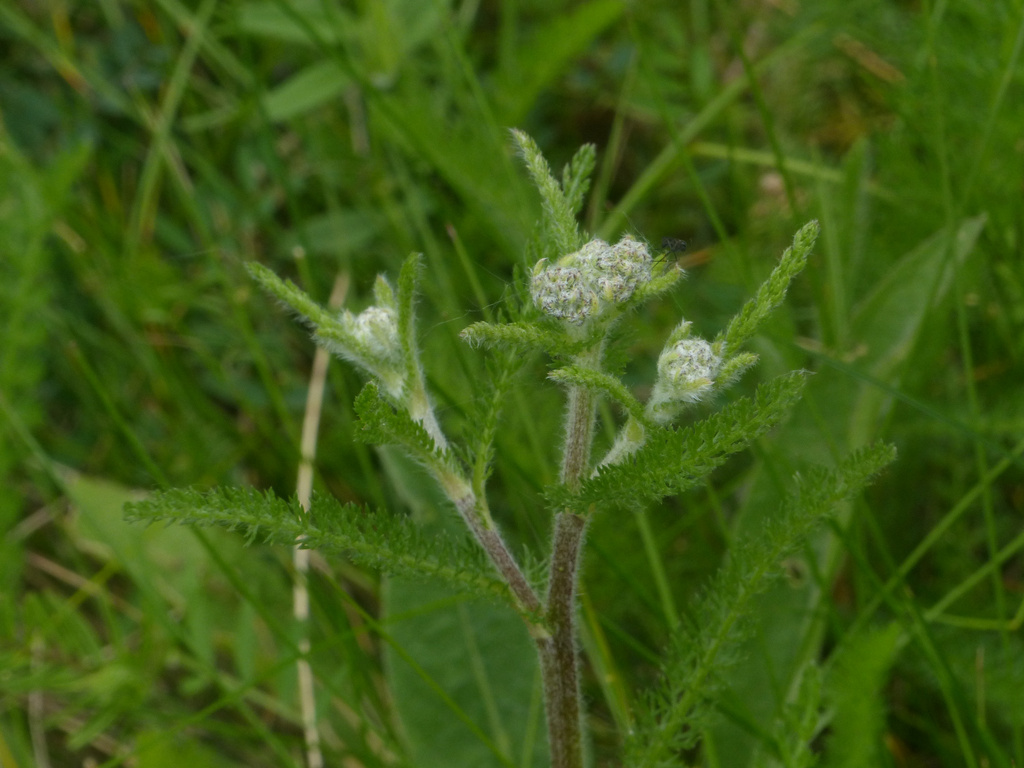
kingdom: Plantae
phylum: Tracheophyta
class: Magnoliopsida
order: Asterales
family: Asteraceae
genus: Achillea
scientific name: Achillea millefolium
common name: Yarrow
